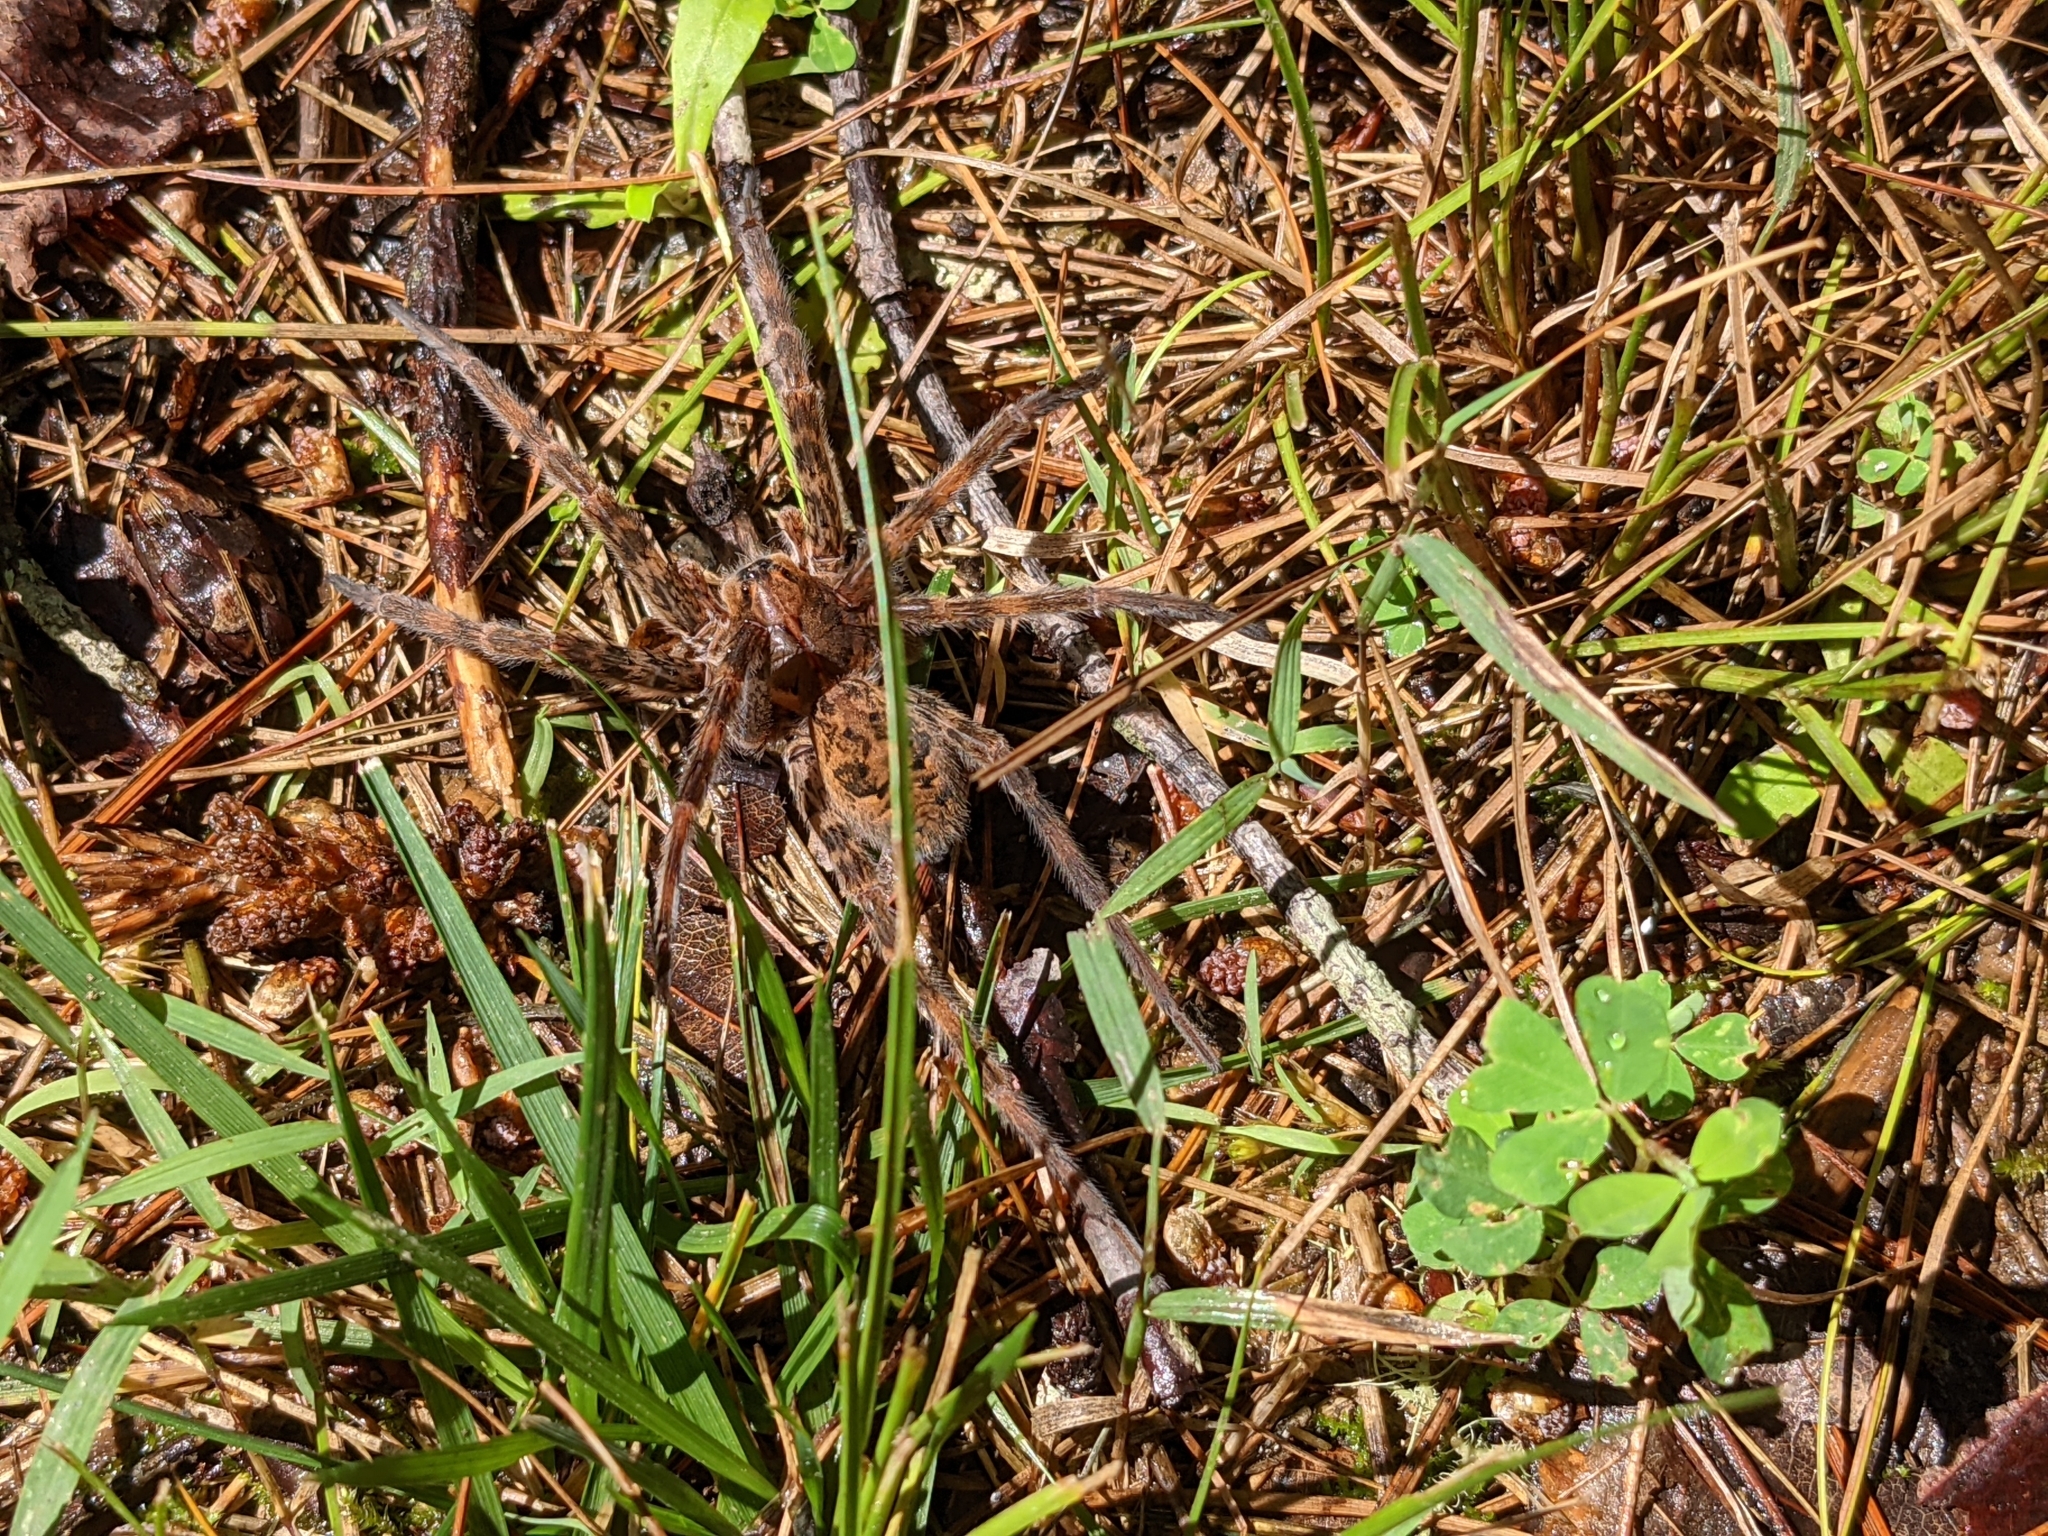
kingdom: Animalia
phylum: Arthropoda
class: Arachnida
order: Araneae
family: Pisauridae
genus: Dolomedes
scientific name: Dolomedes tenebrosus
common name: Dark fishing spider
